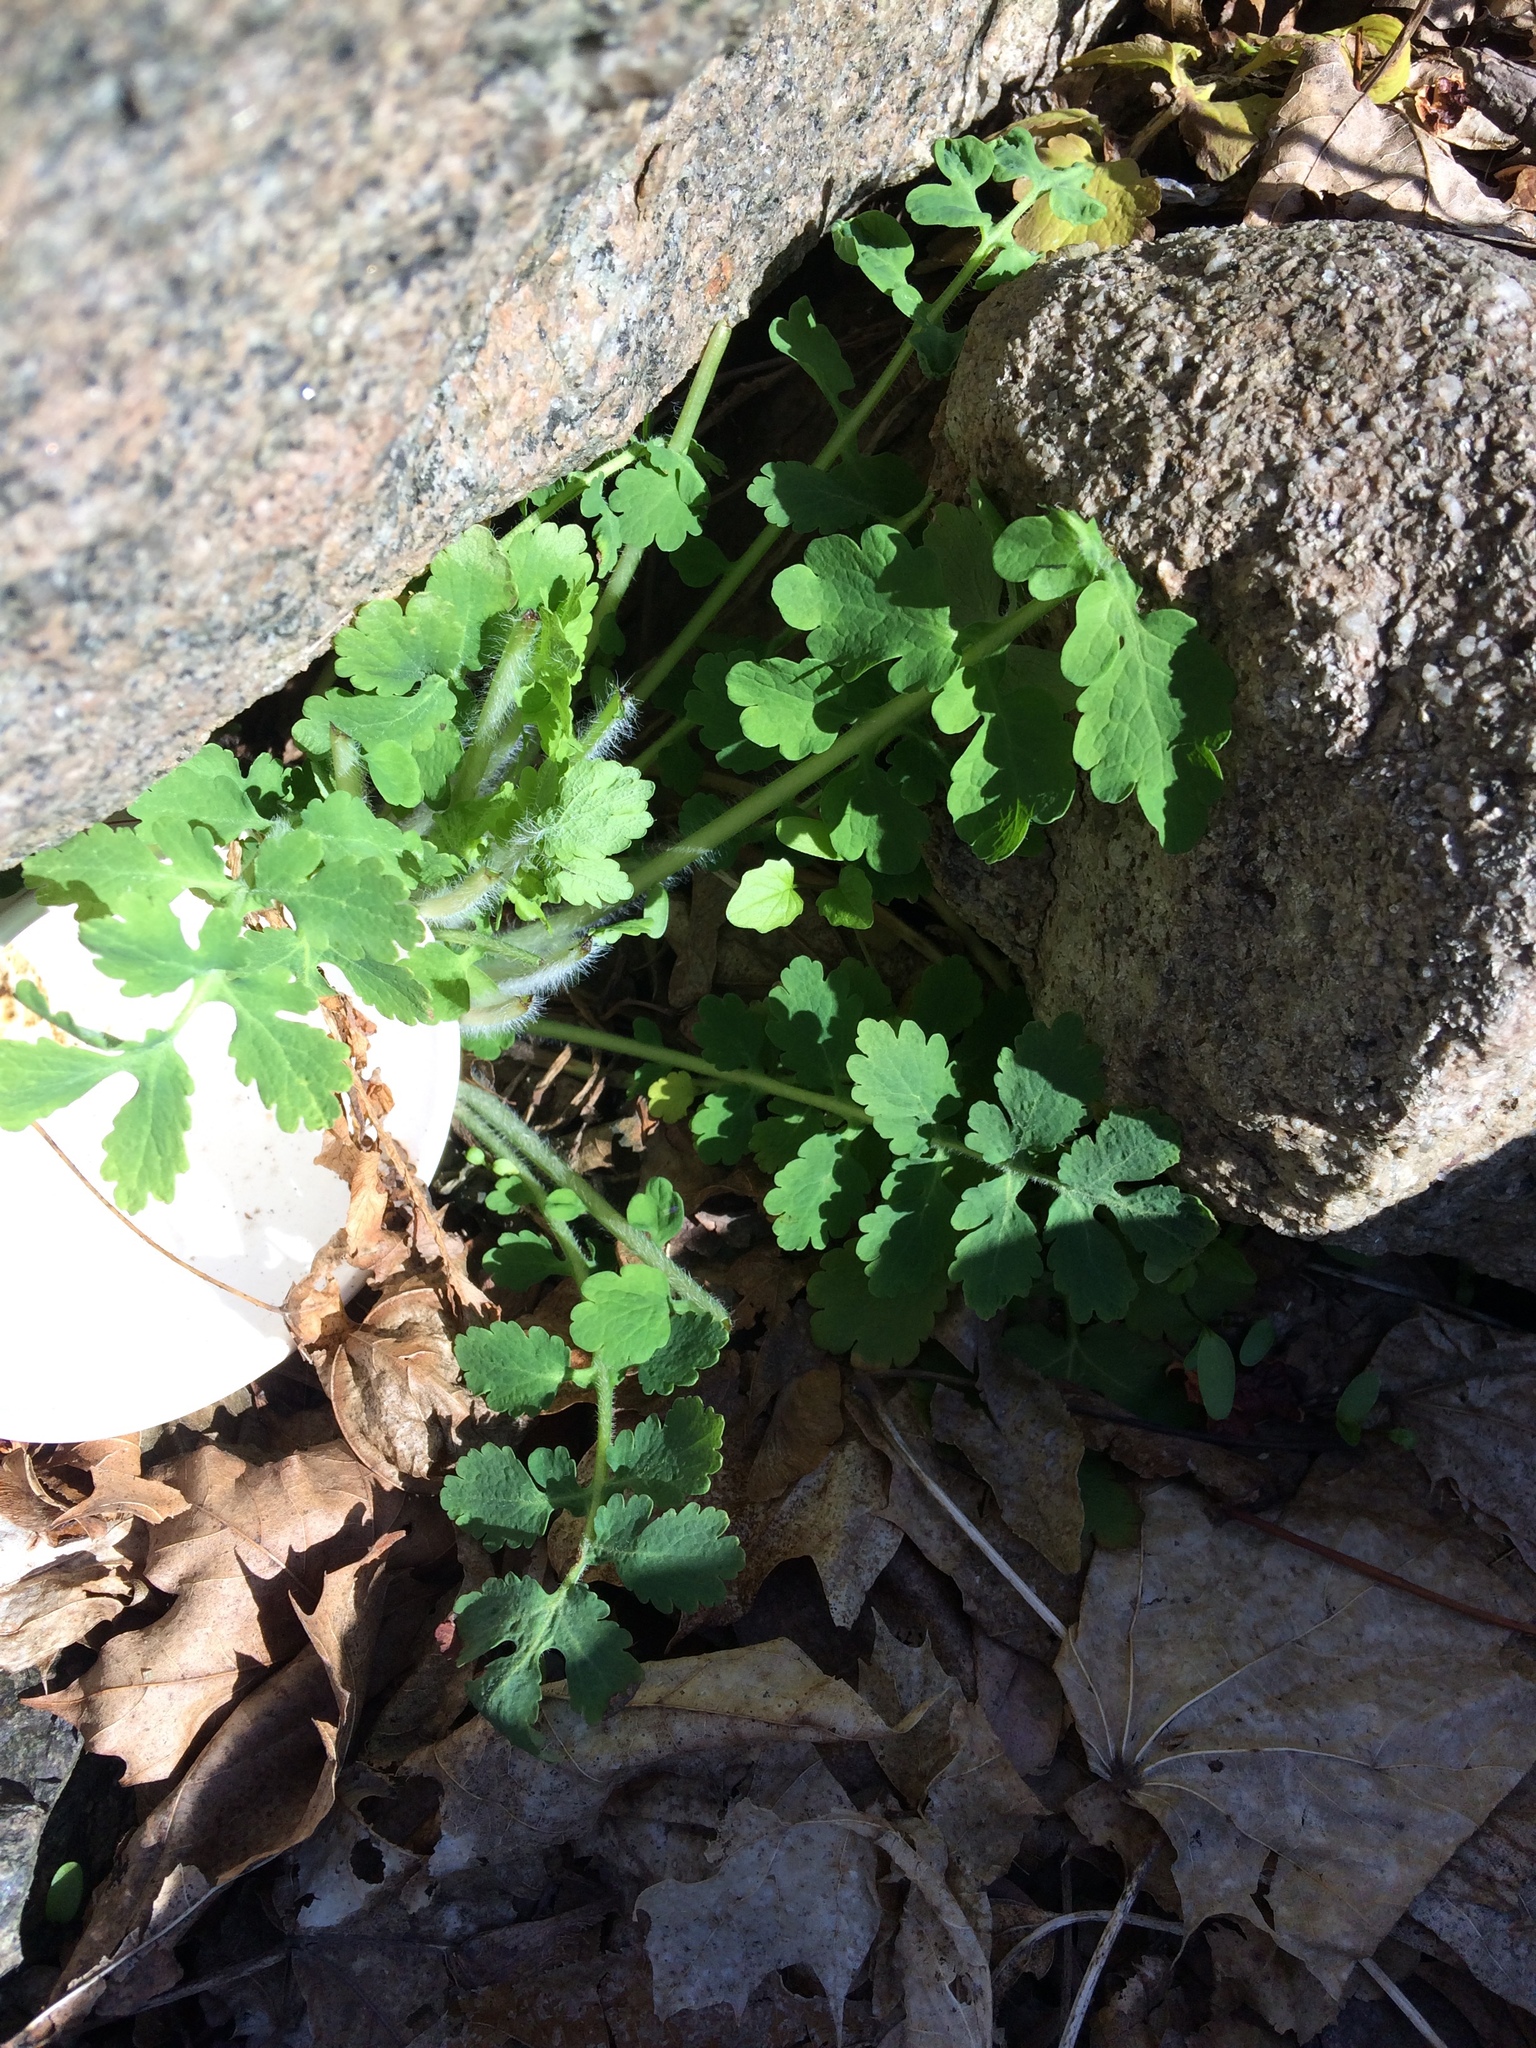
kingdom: Plantae
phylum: Tracheophyta
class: Magnoliopsida
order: Ranunculales
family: Papaveraceae
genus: Chelidonium
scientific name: Chelidonium majus
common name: Greater celandine
